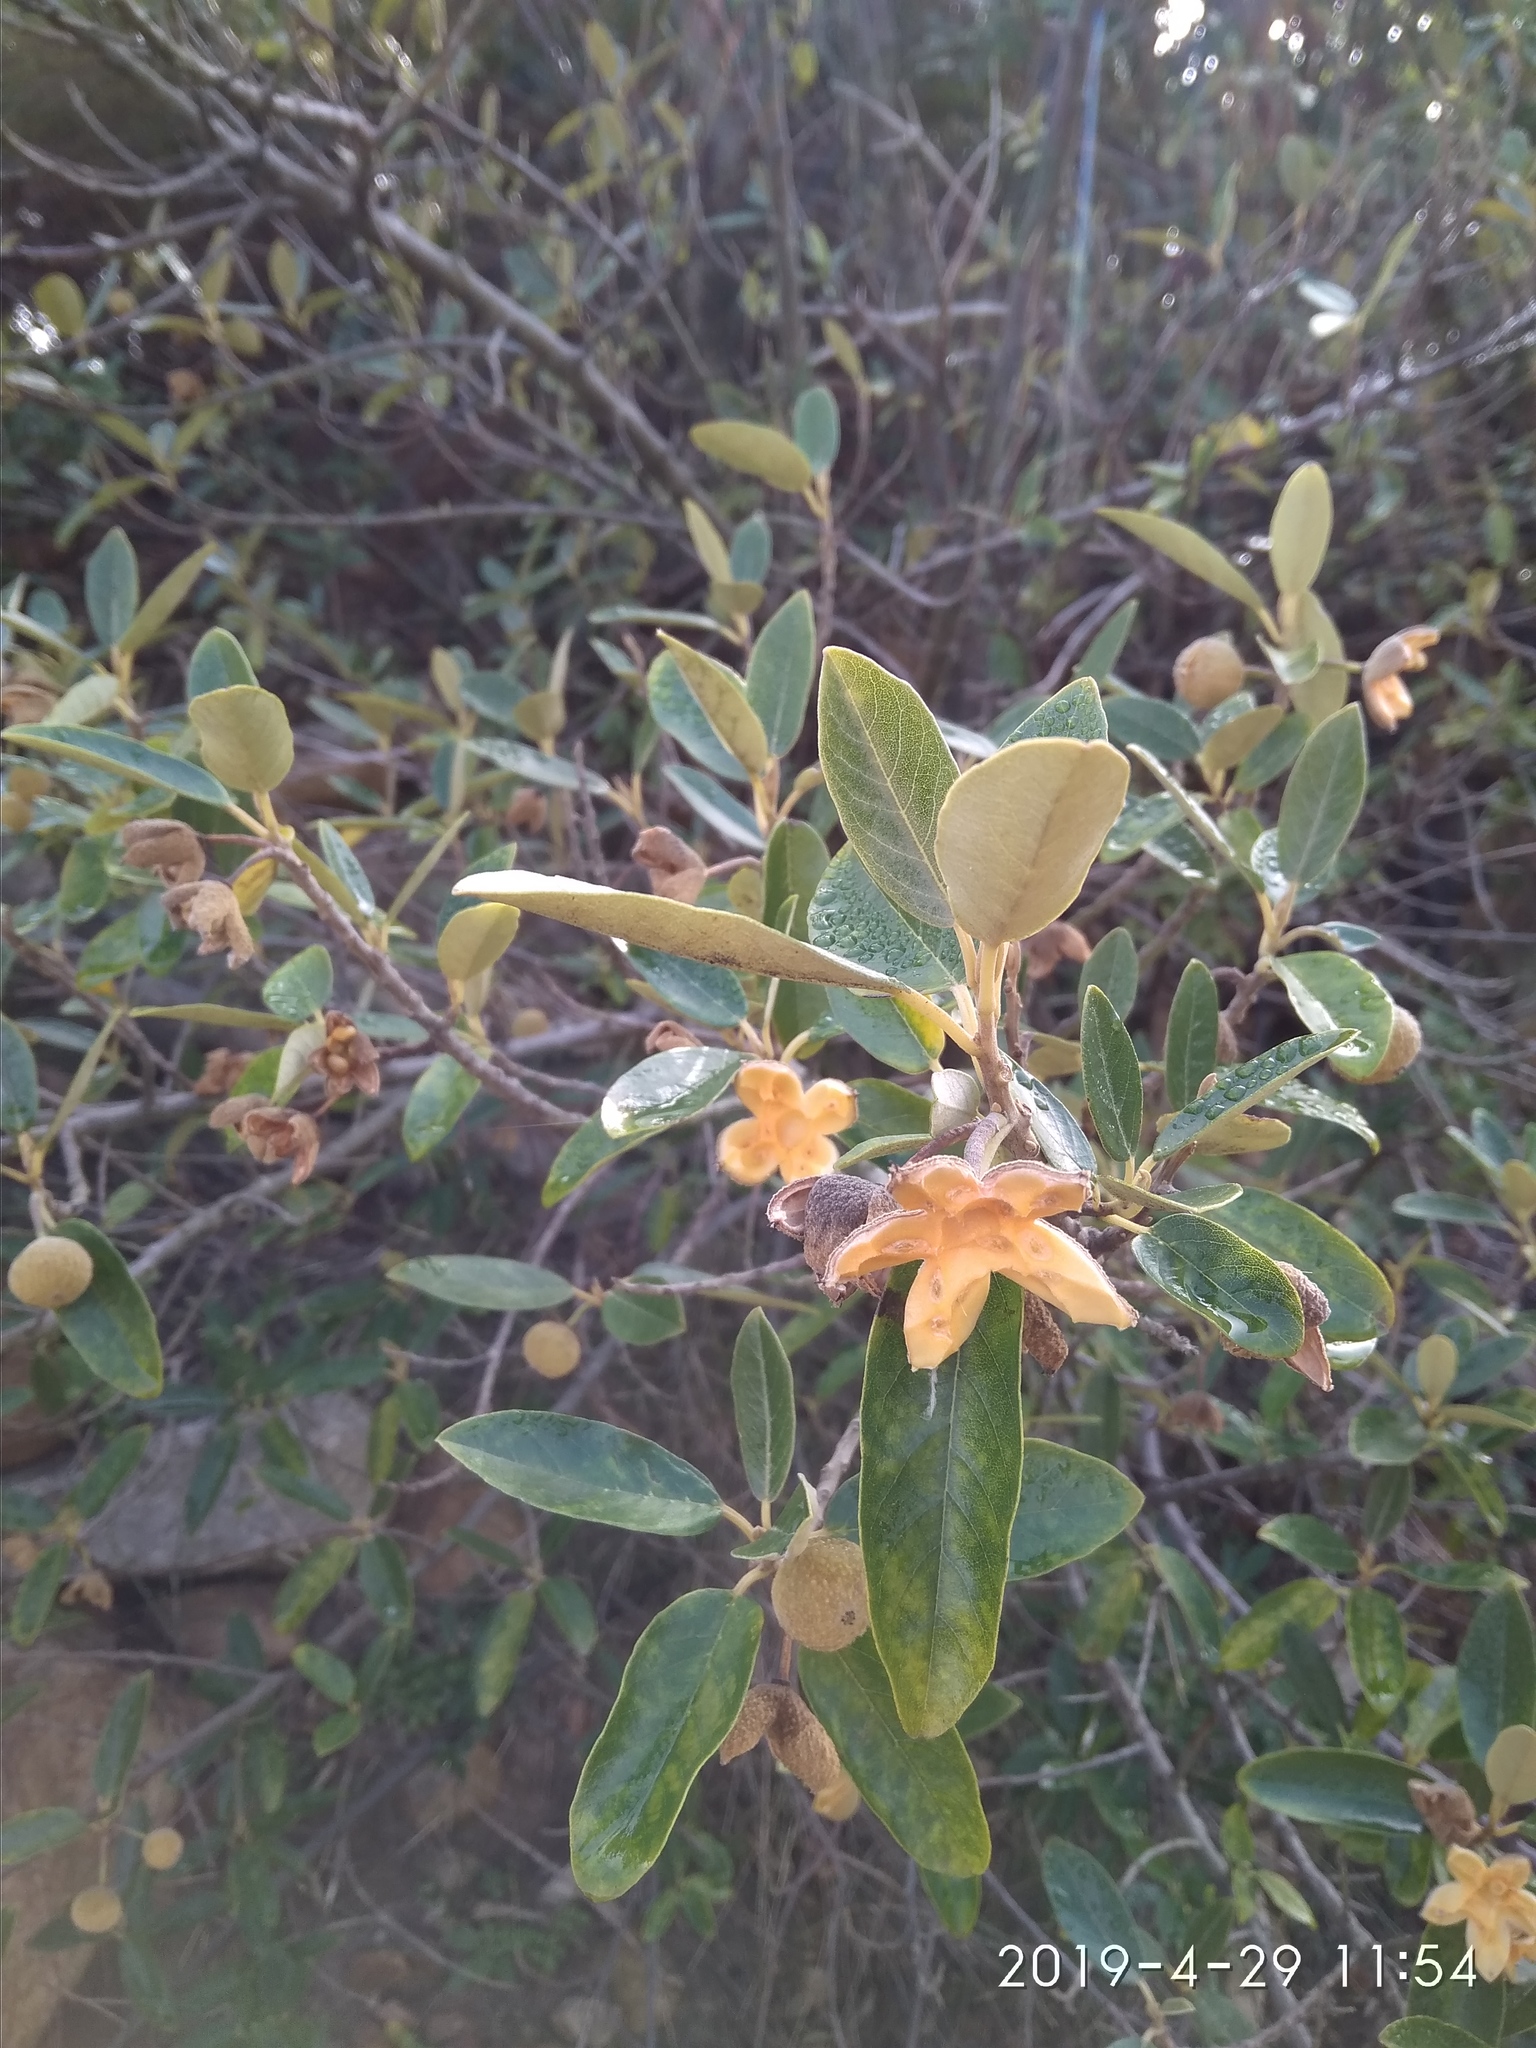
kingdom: Plantae
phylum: Tracheophyta
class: Magnoliopsida
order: Malpighiales
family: Achariaceae
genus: Kiggelaria
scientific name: Kiggelaria africana
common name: Wild peach
